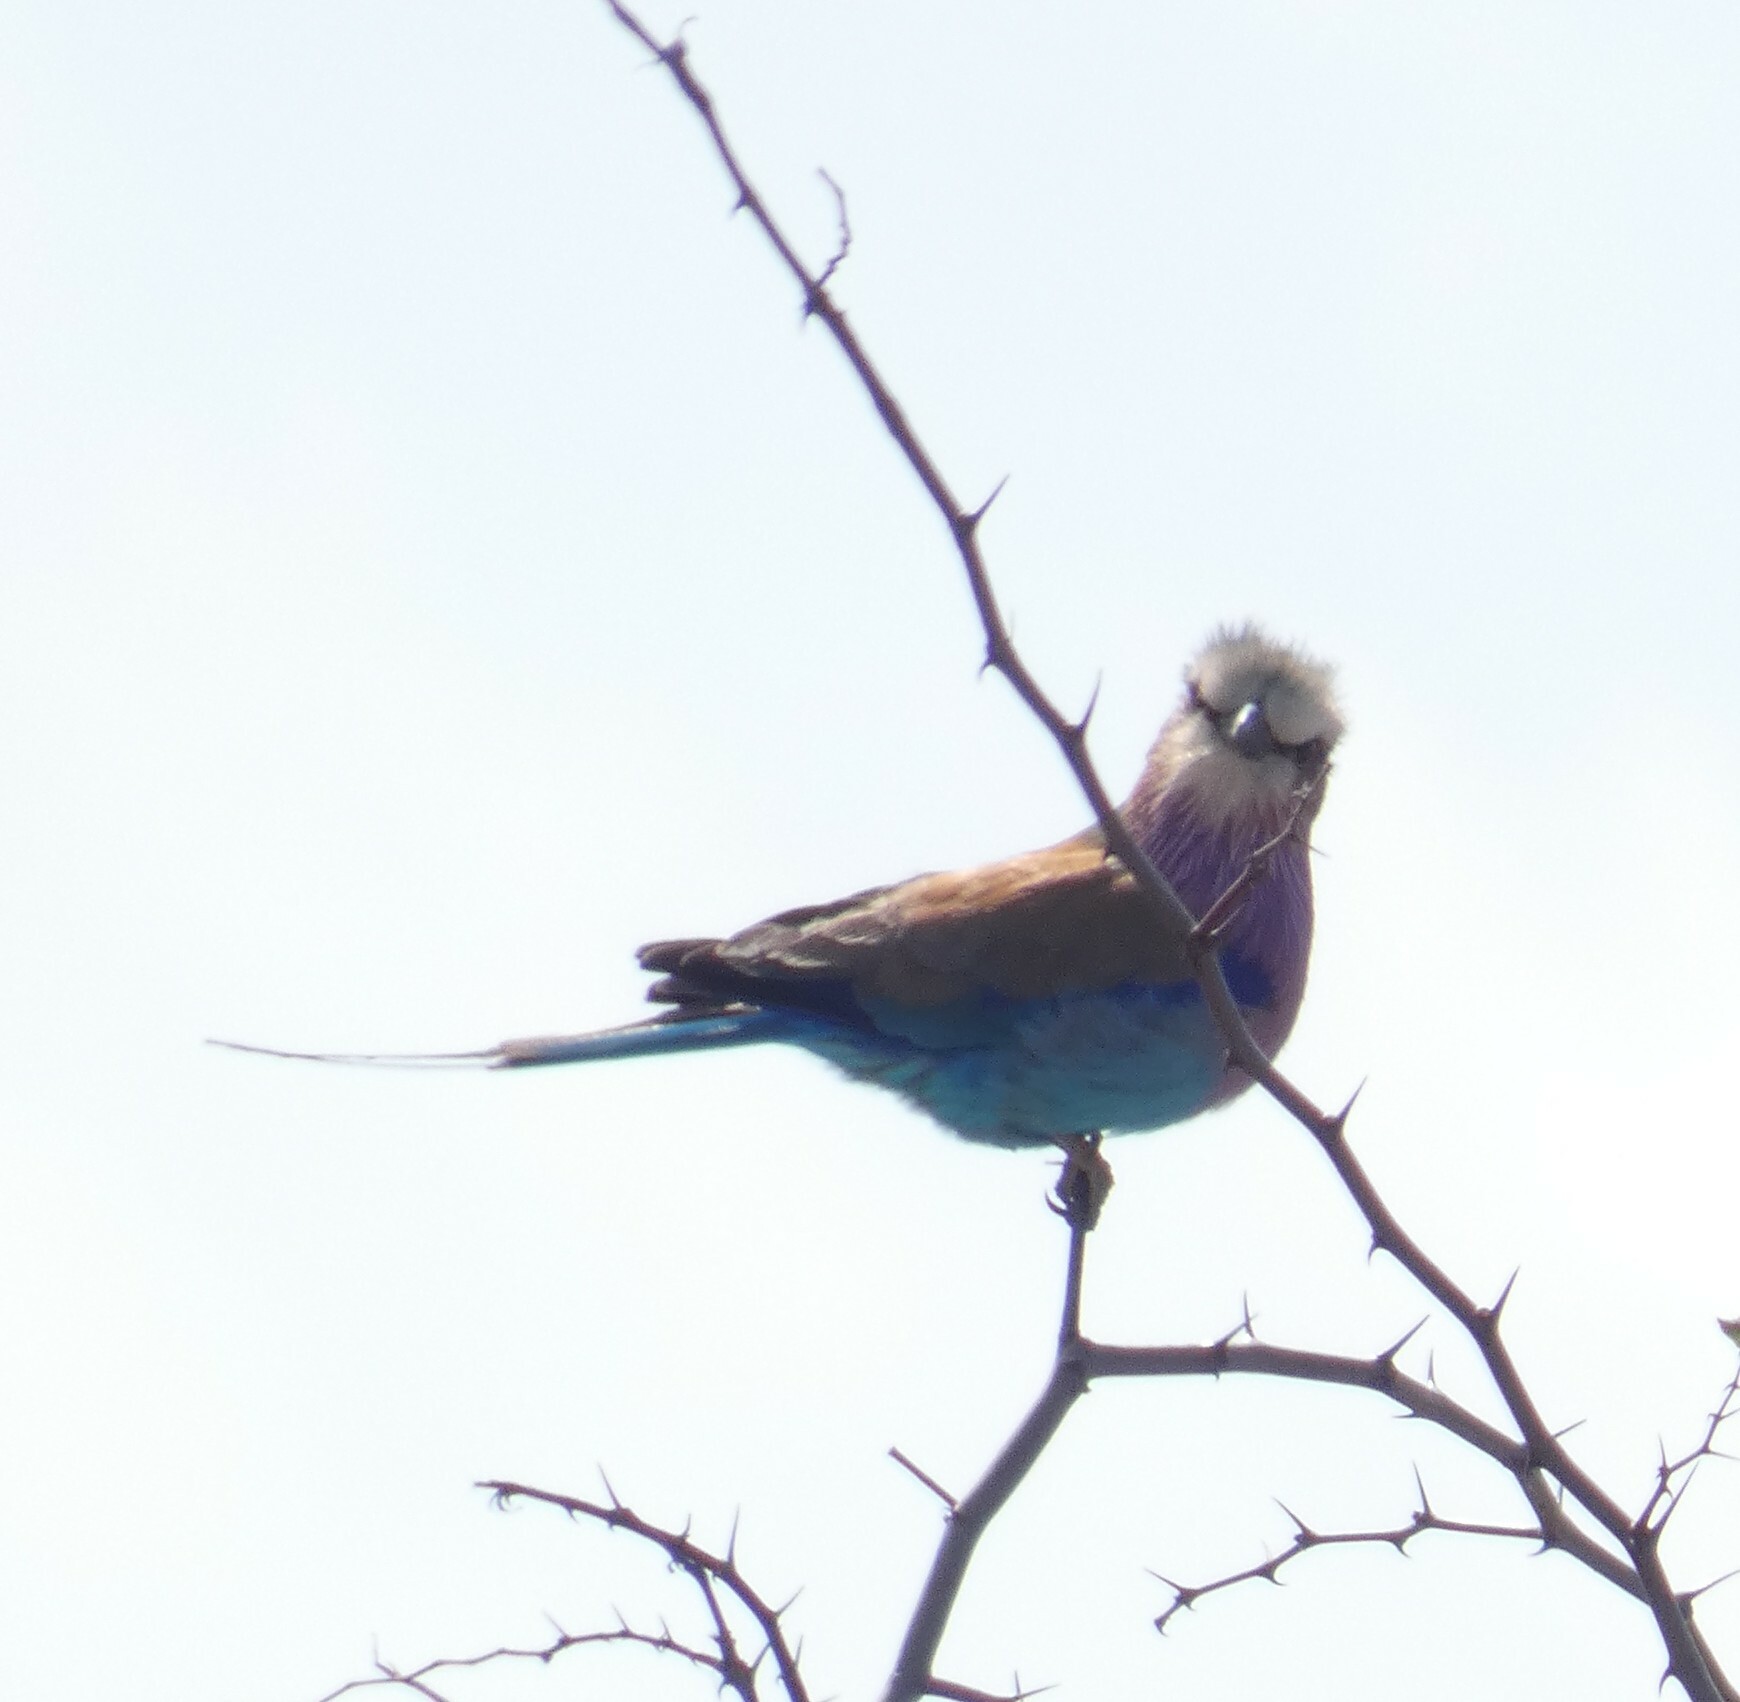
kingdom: Animalia
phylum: Chordata
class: Aves
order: Coraciiformes
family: Coraciidae
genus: Coracias
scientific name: Coracias caudatus
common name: Lilac-breasted roller
